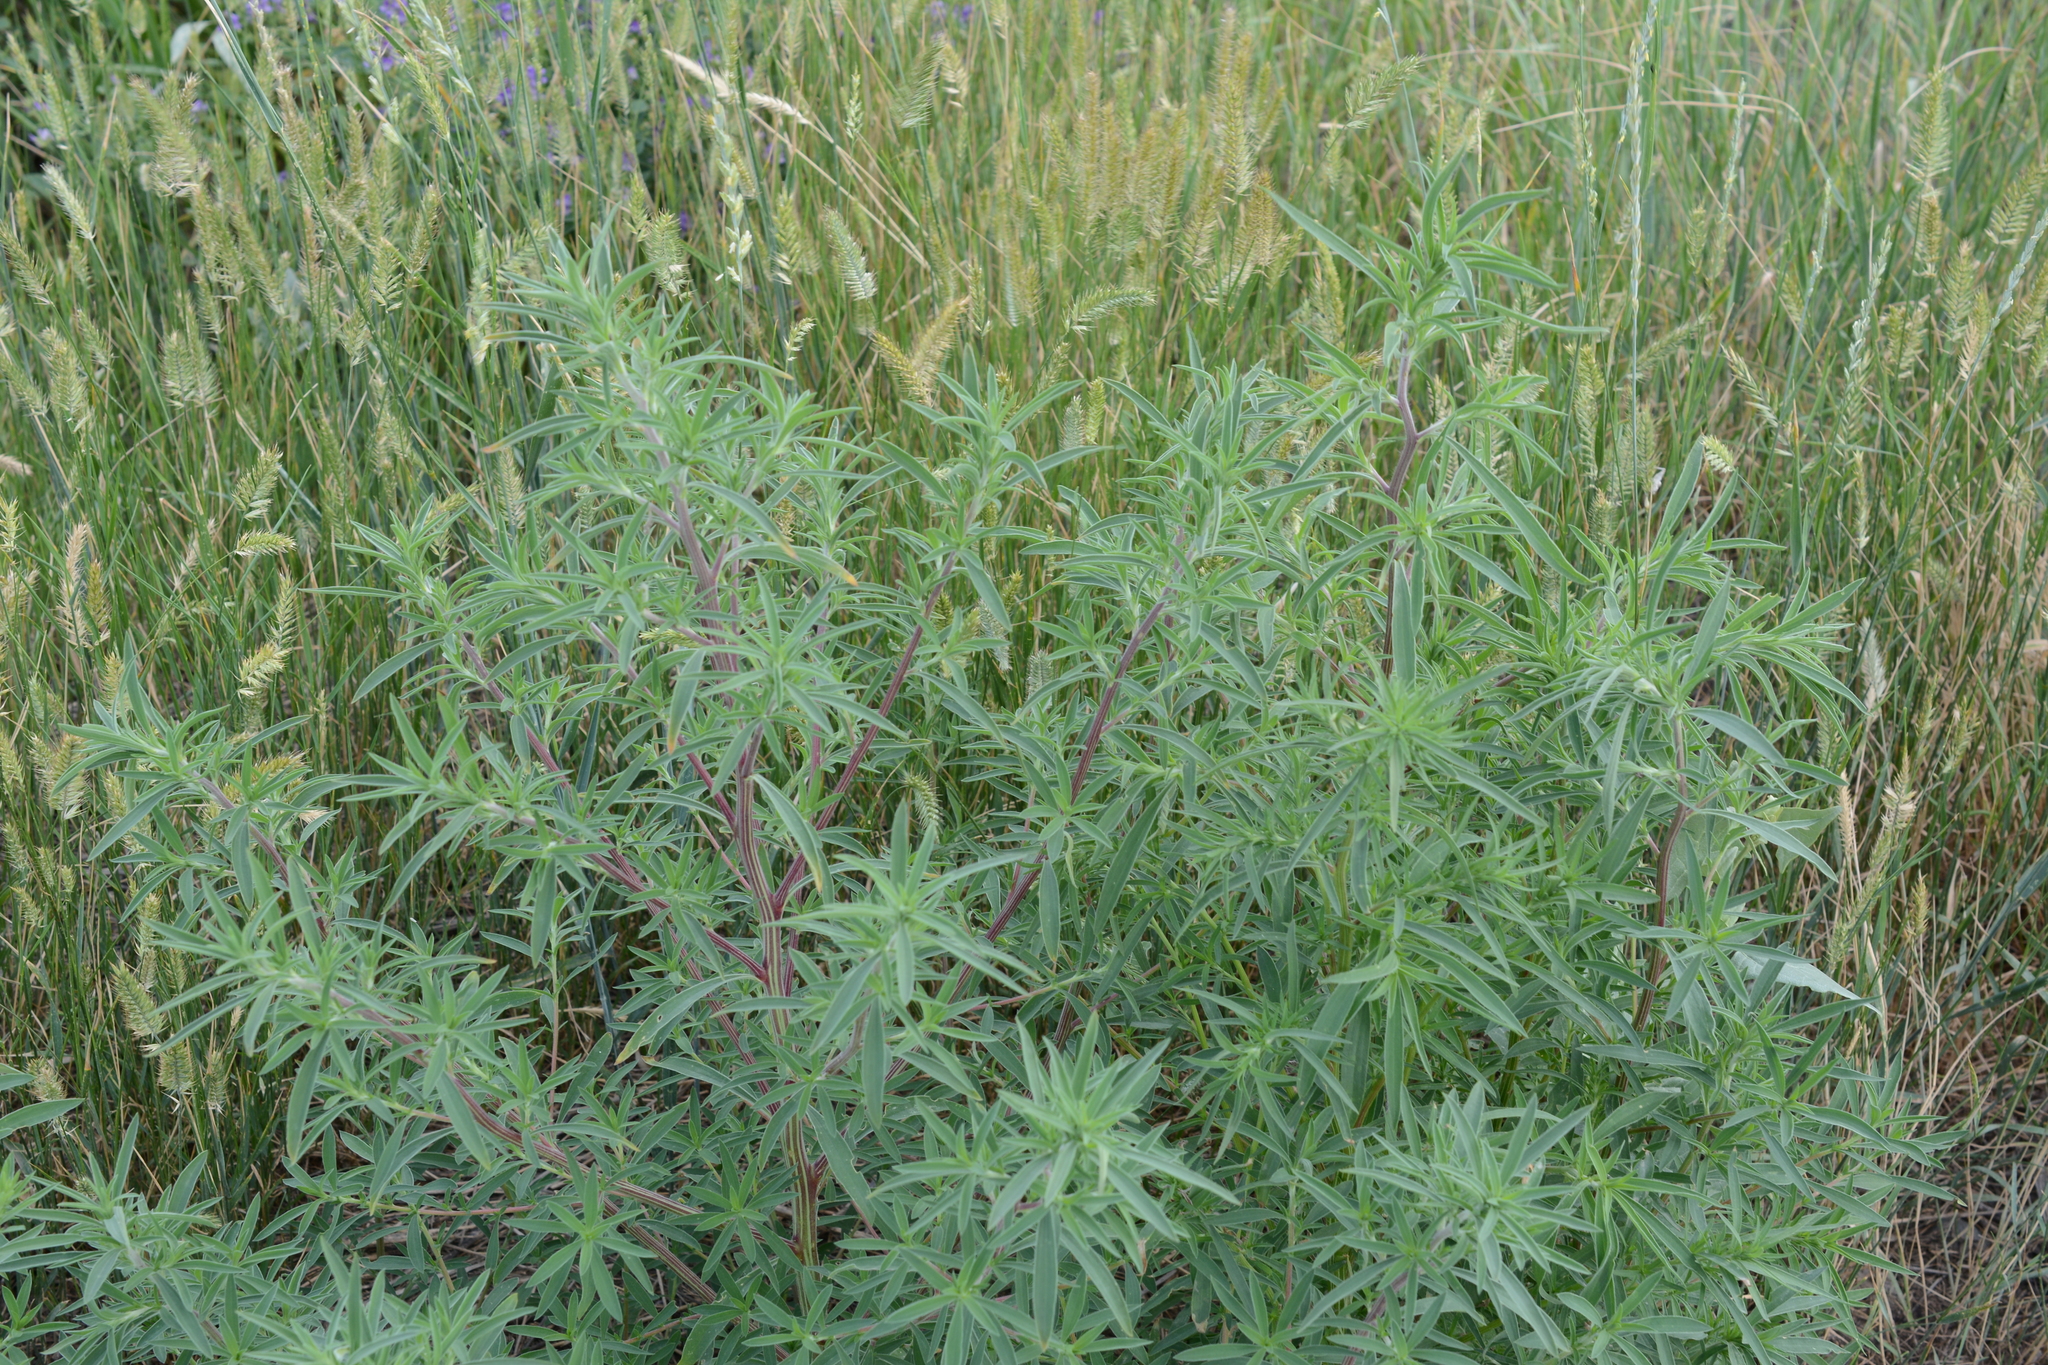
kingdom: Plantae
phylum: Tracheophyta
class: Magnoliopsida
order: Caryophyllales
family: Amaranthaceae
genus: Bassia
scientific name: Bassia scoparia
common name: Belvedere
